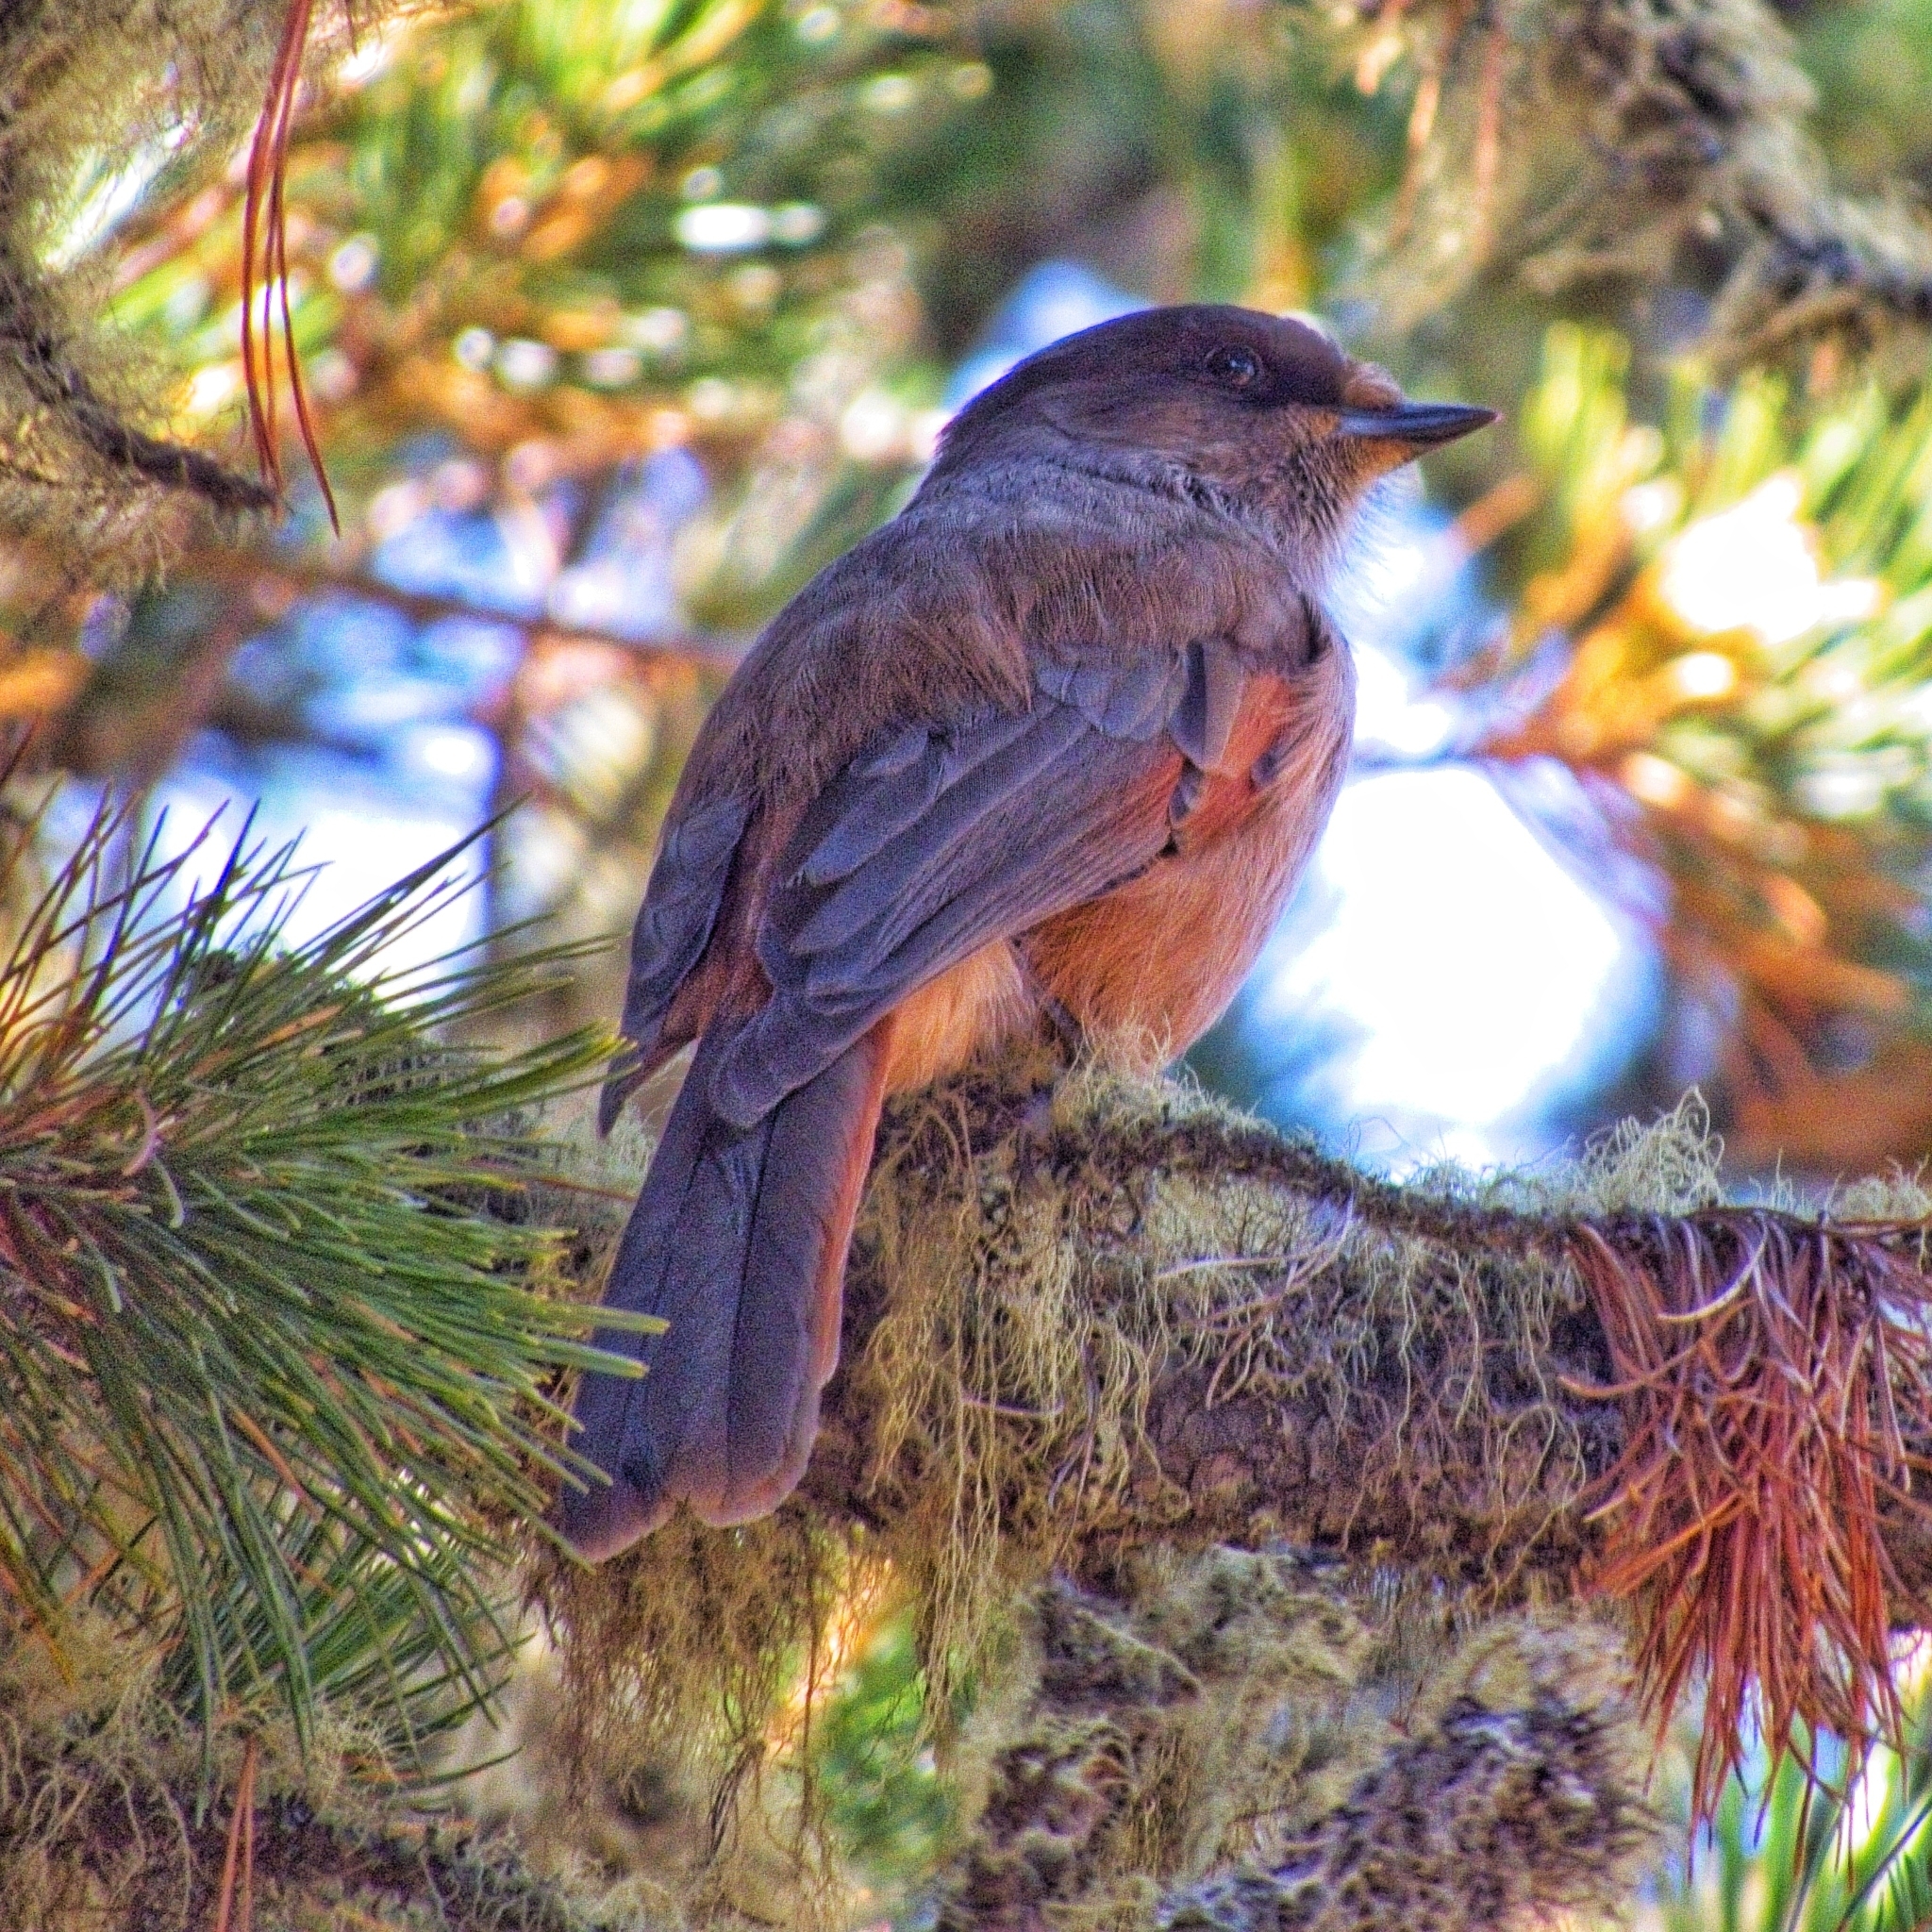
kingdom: Animalia
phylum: Chordata
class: Aves
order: Passeriformes
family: Corvidae
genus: Perisoreus
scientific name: Perisoreus infaustus
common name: Siberian jay
